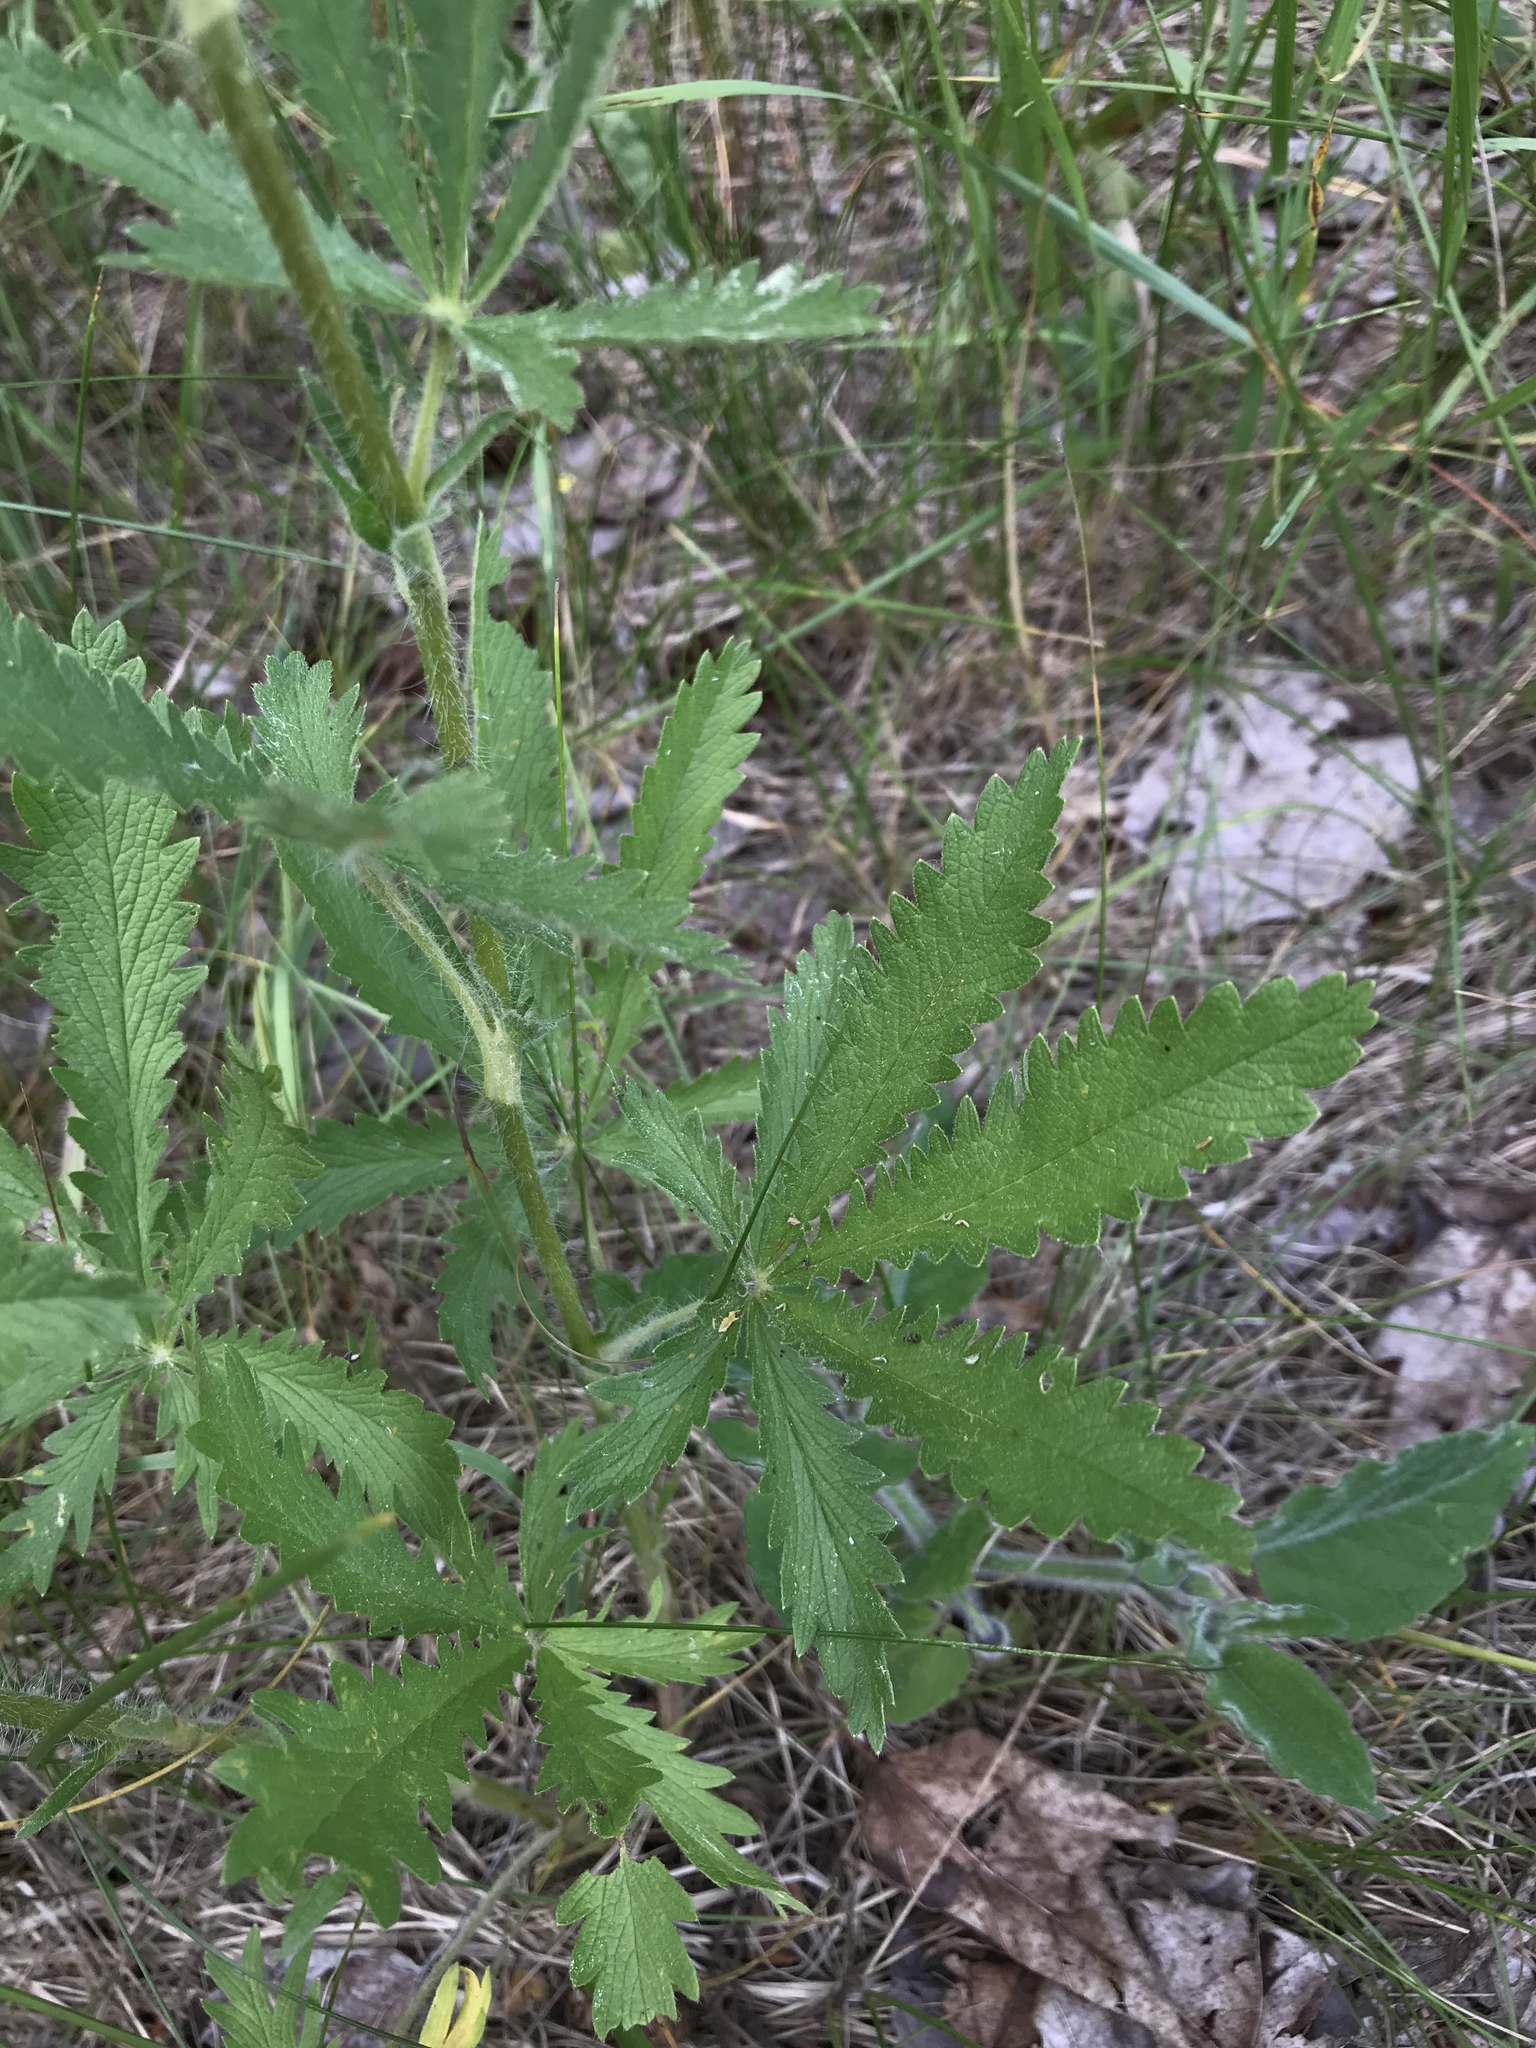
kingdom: Plantae
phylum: Tracheophyta
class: Magnoliopsida
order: Rosales
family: Rosaceae
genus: Potentilla
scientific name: Potentilla recta
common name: Sulphur cinquefoil
